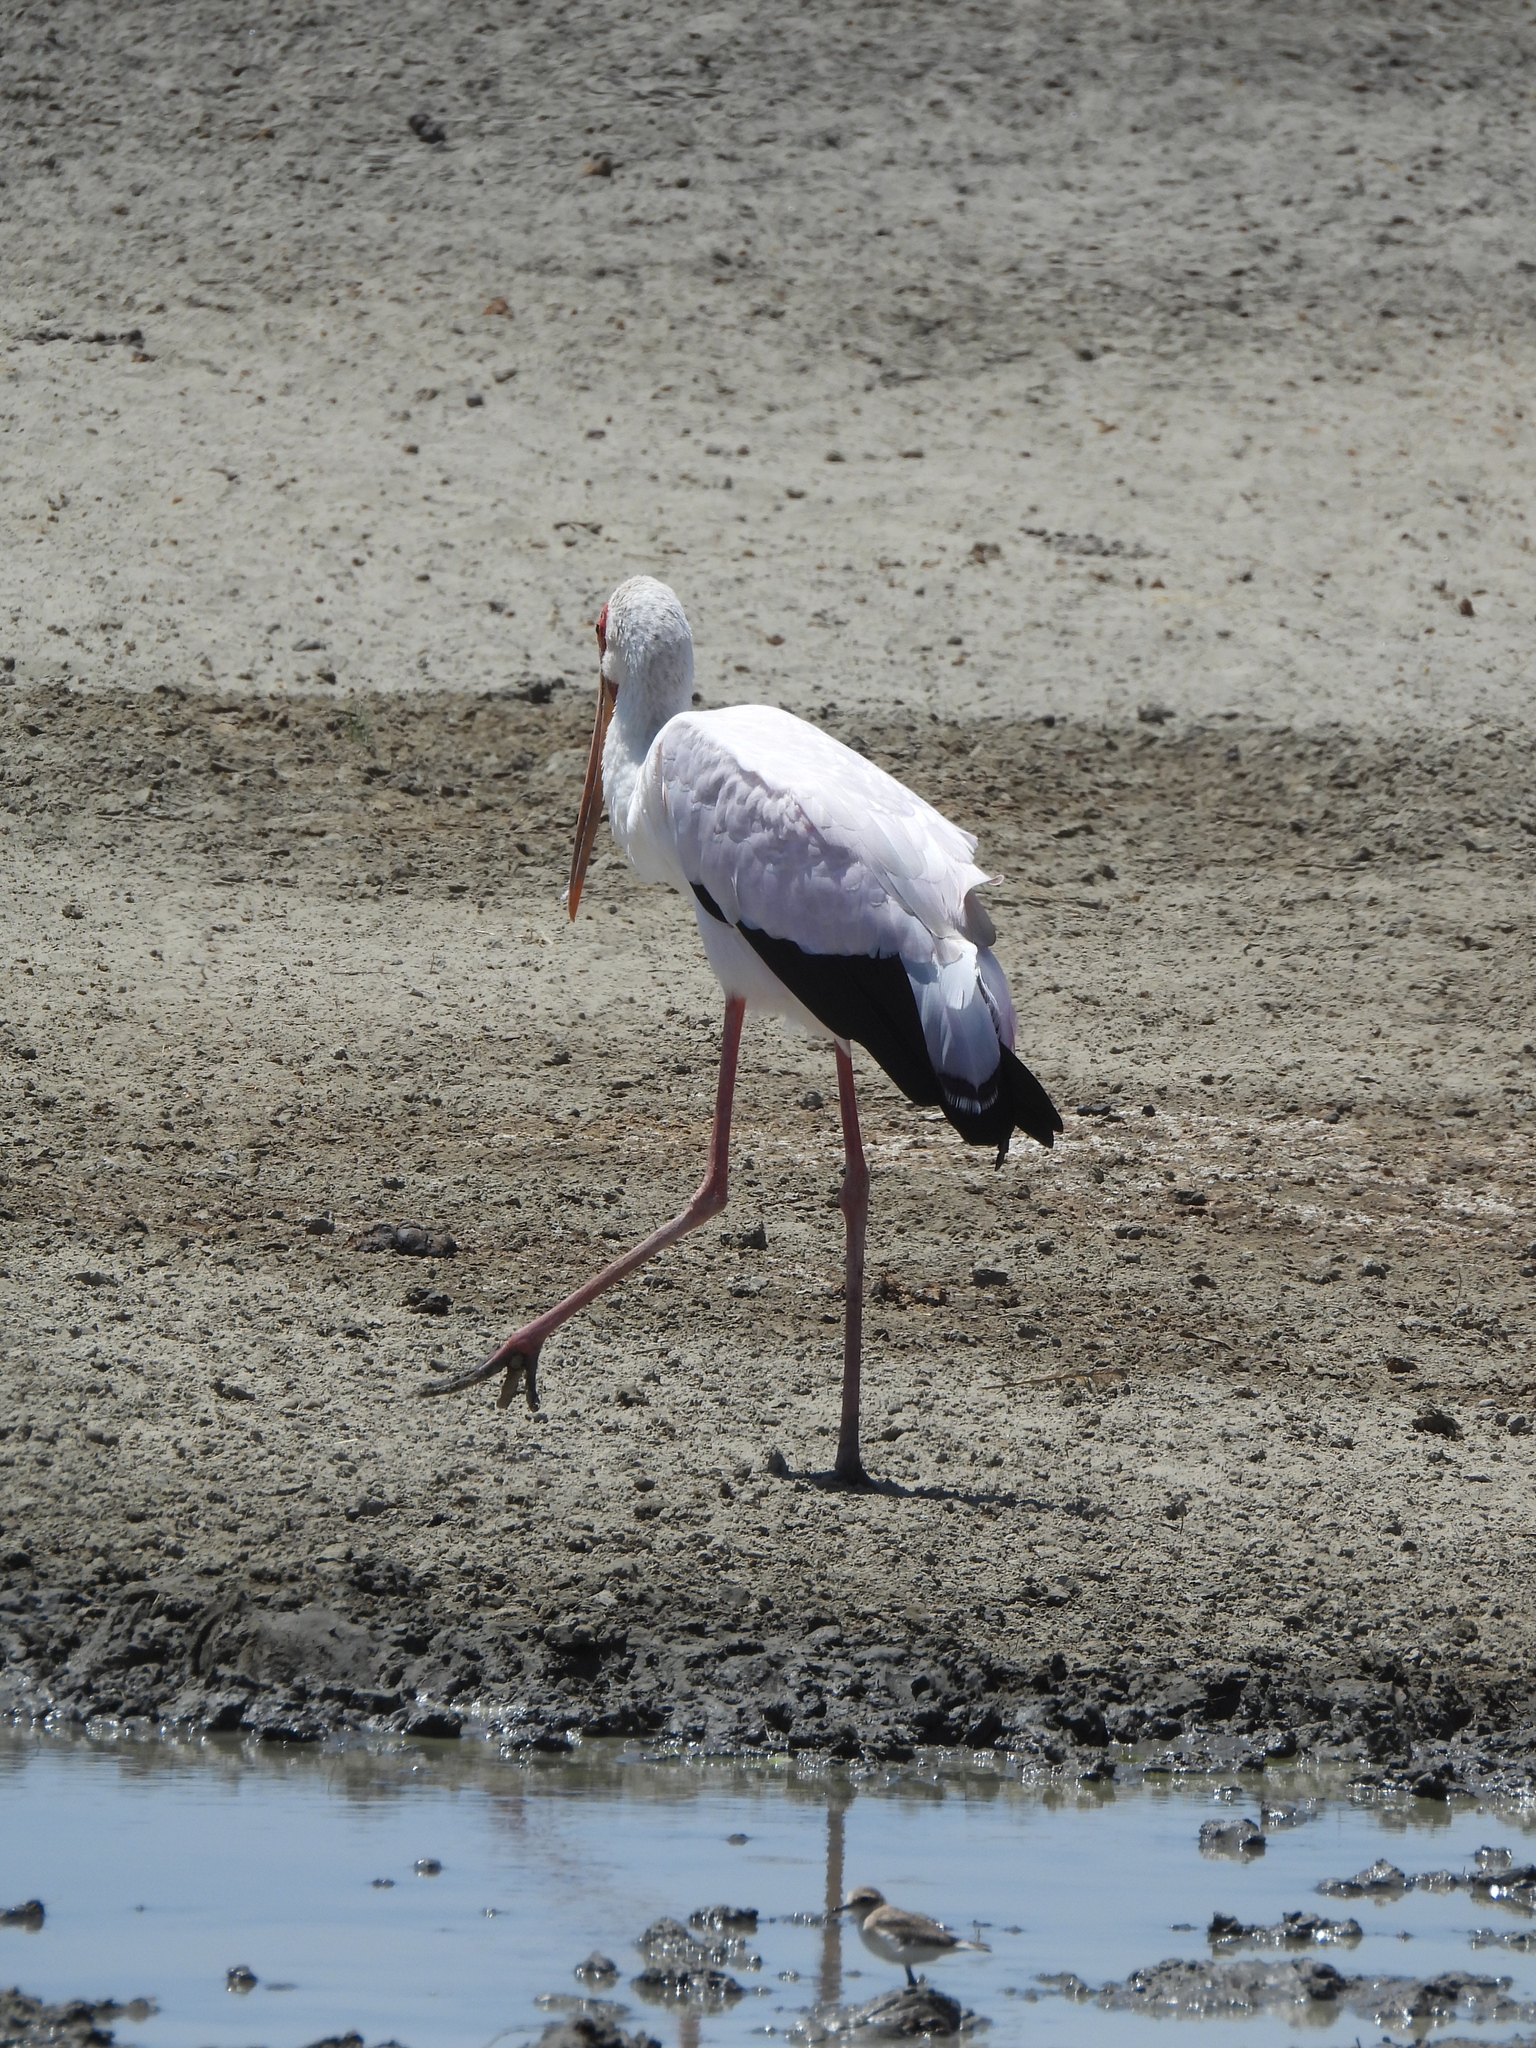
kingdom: Animalia
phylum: Chordata
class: Aves
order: Ciconiiformes
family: Ciconiidae
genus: Mycteria
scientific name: Mycteria ibis
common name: Yellow-billed stork
